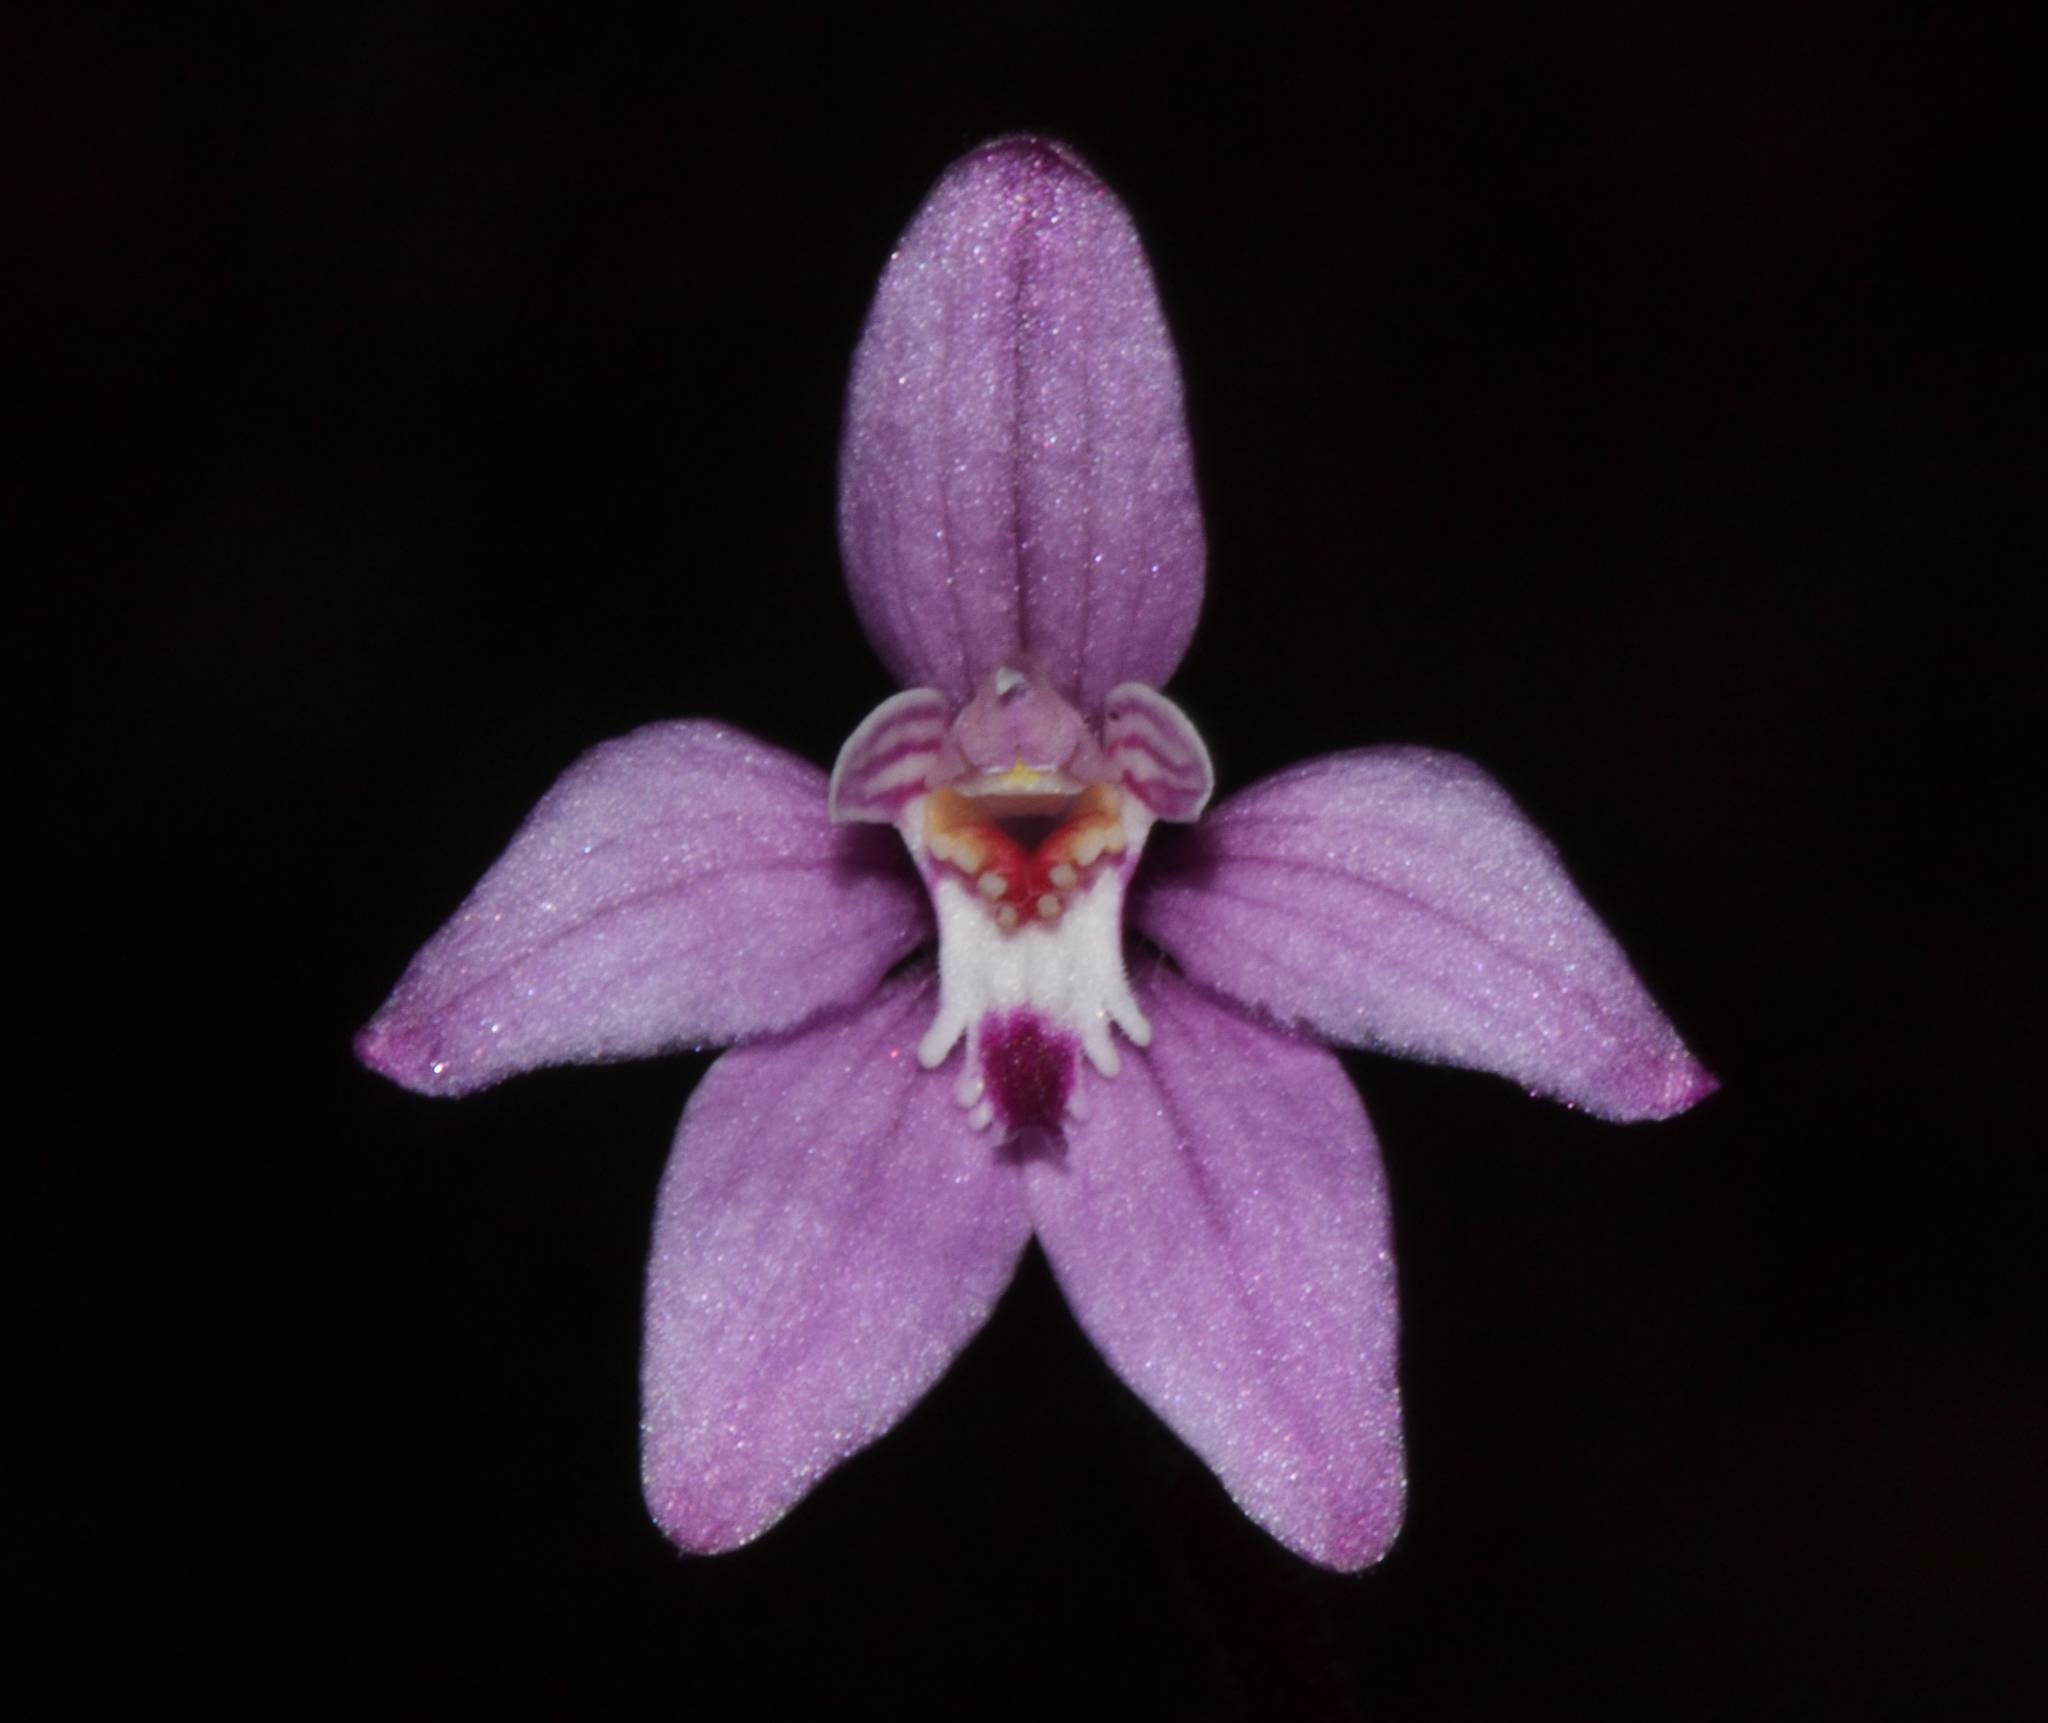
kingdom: Plantae
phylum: Tracheophyta
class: Liliopsida
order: Asparagales
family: Orchidaceae
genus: Caladenia
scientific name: Caladenia reptans
